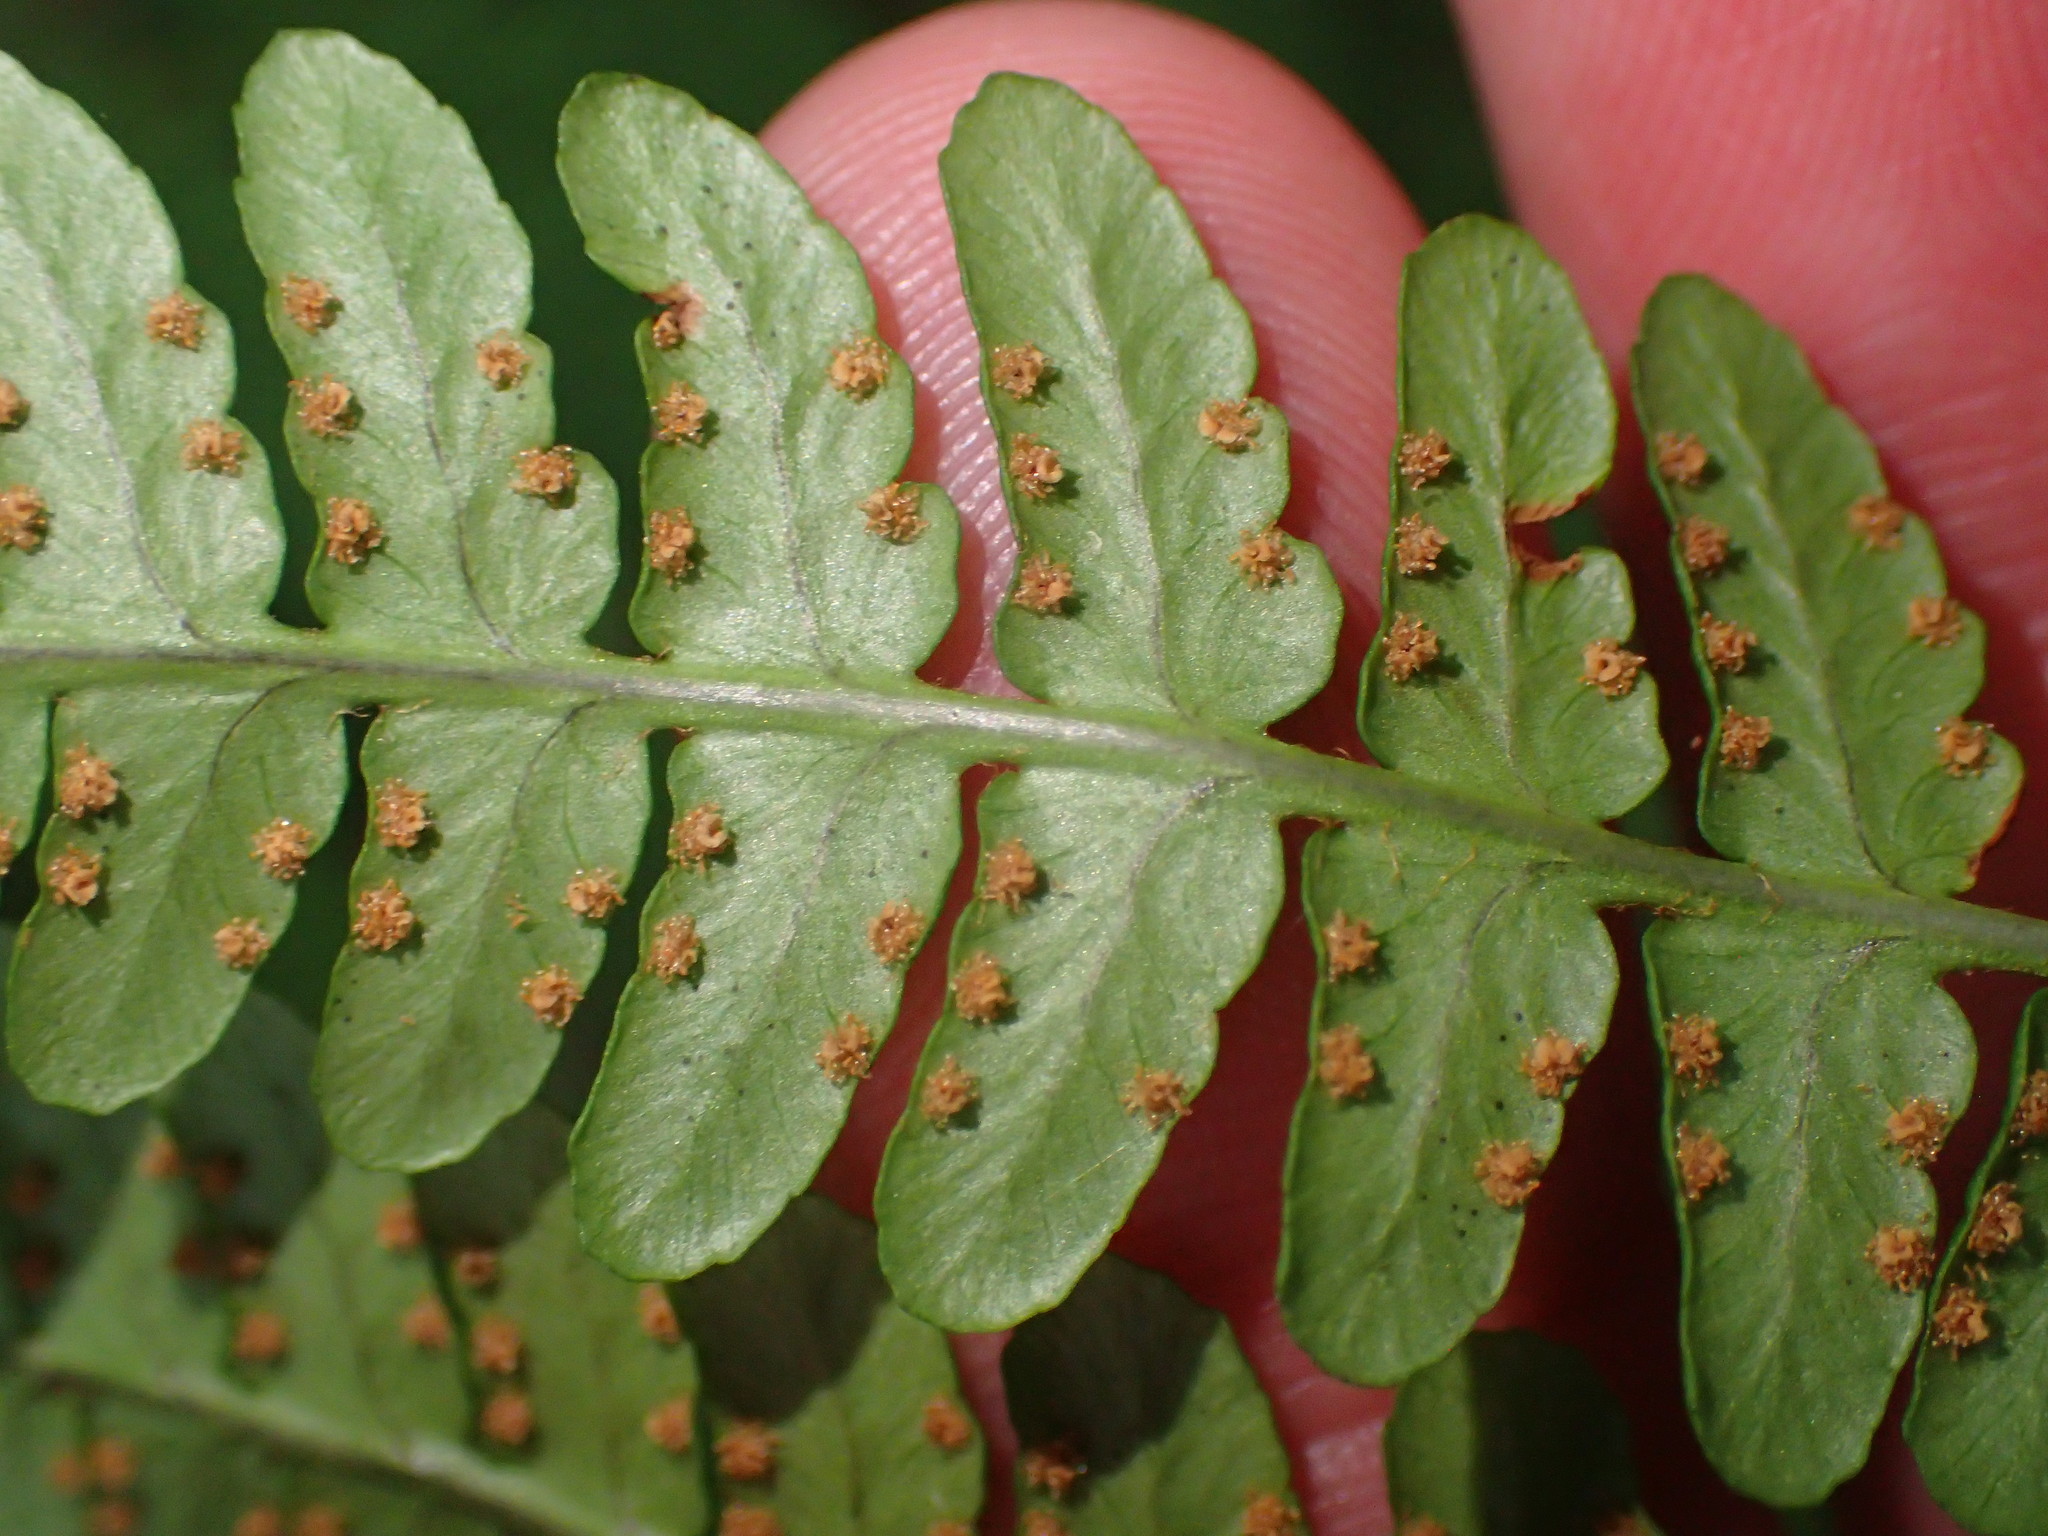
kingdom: Plantae
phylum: Tracheophyta
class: Polypodiopsida
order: Polypodiales
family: Dryopteridaceae
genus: Dryopteris
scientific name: Dryopteris marginalis
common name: Marginal wood fern
